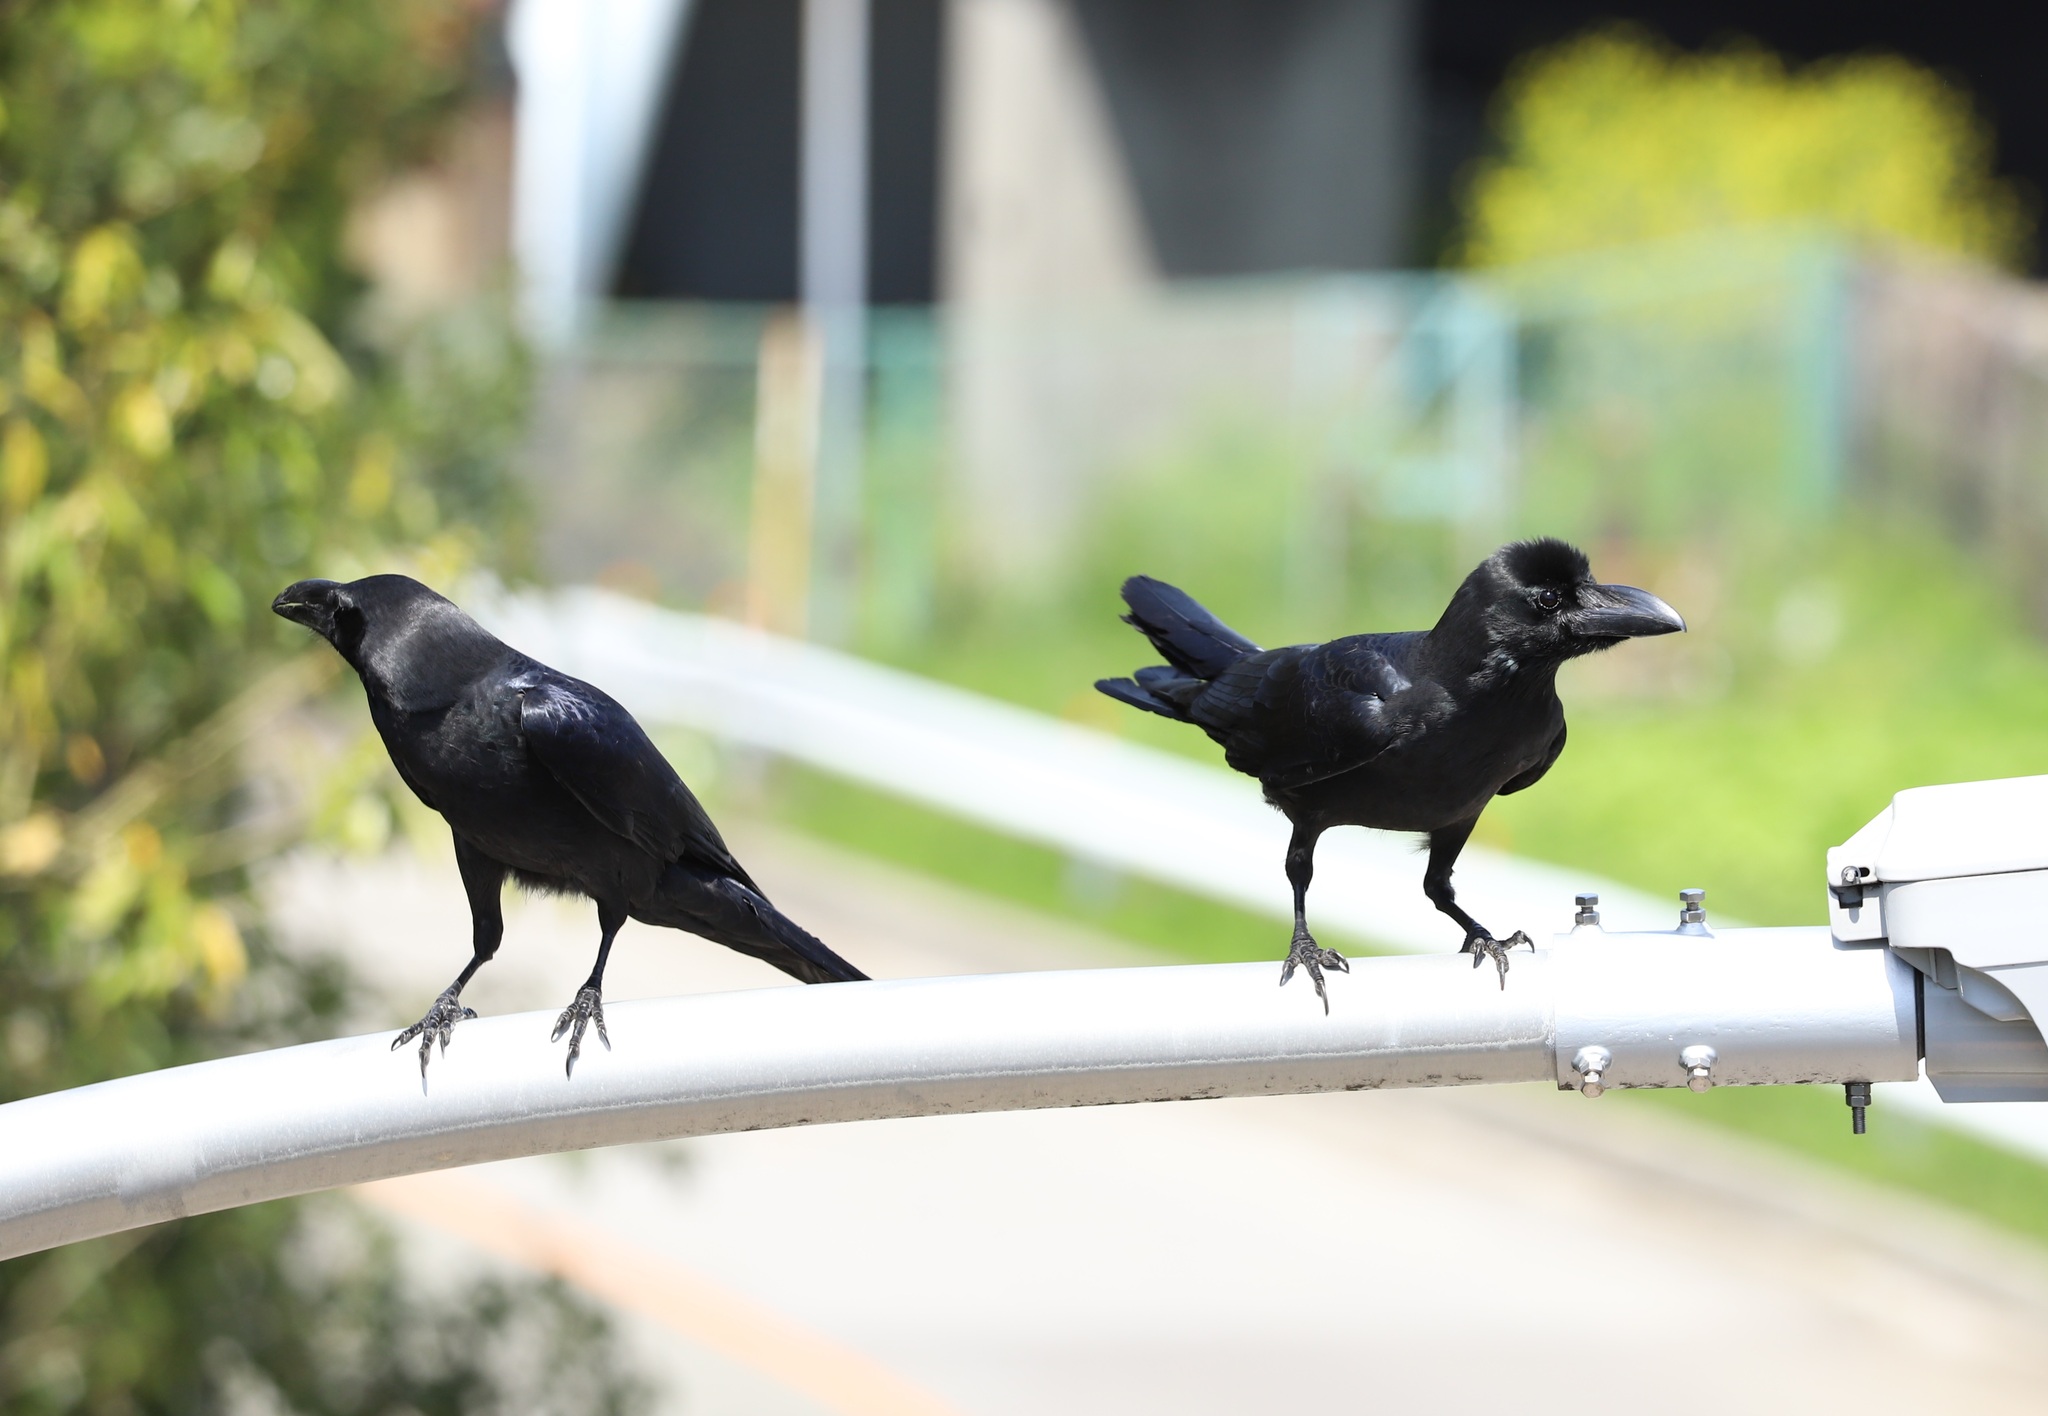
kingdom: Animalia
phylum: Chordata
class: Aves
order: Passeriformes
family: Corvidae
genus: Corvus
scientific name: Corvus macrorhynchos
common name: Large-billed crow
